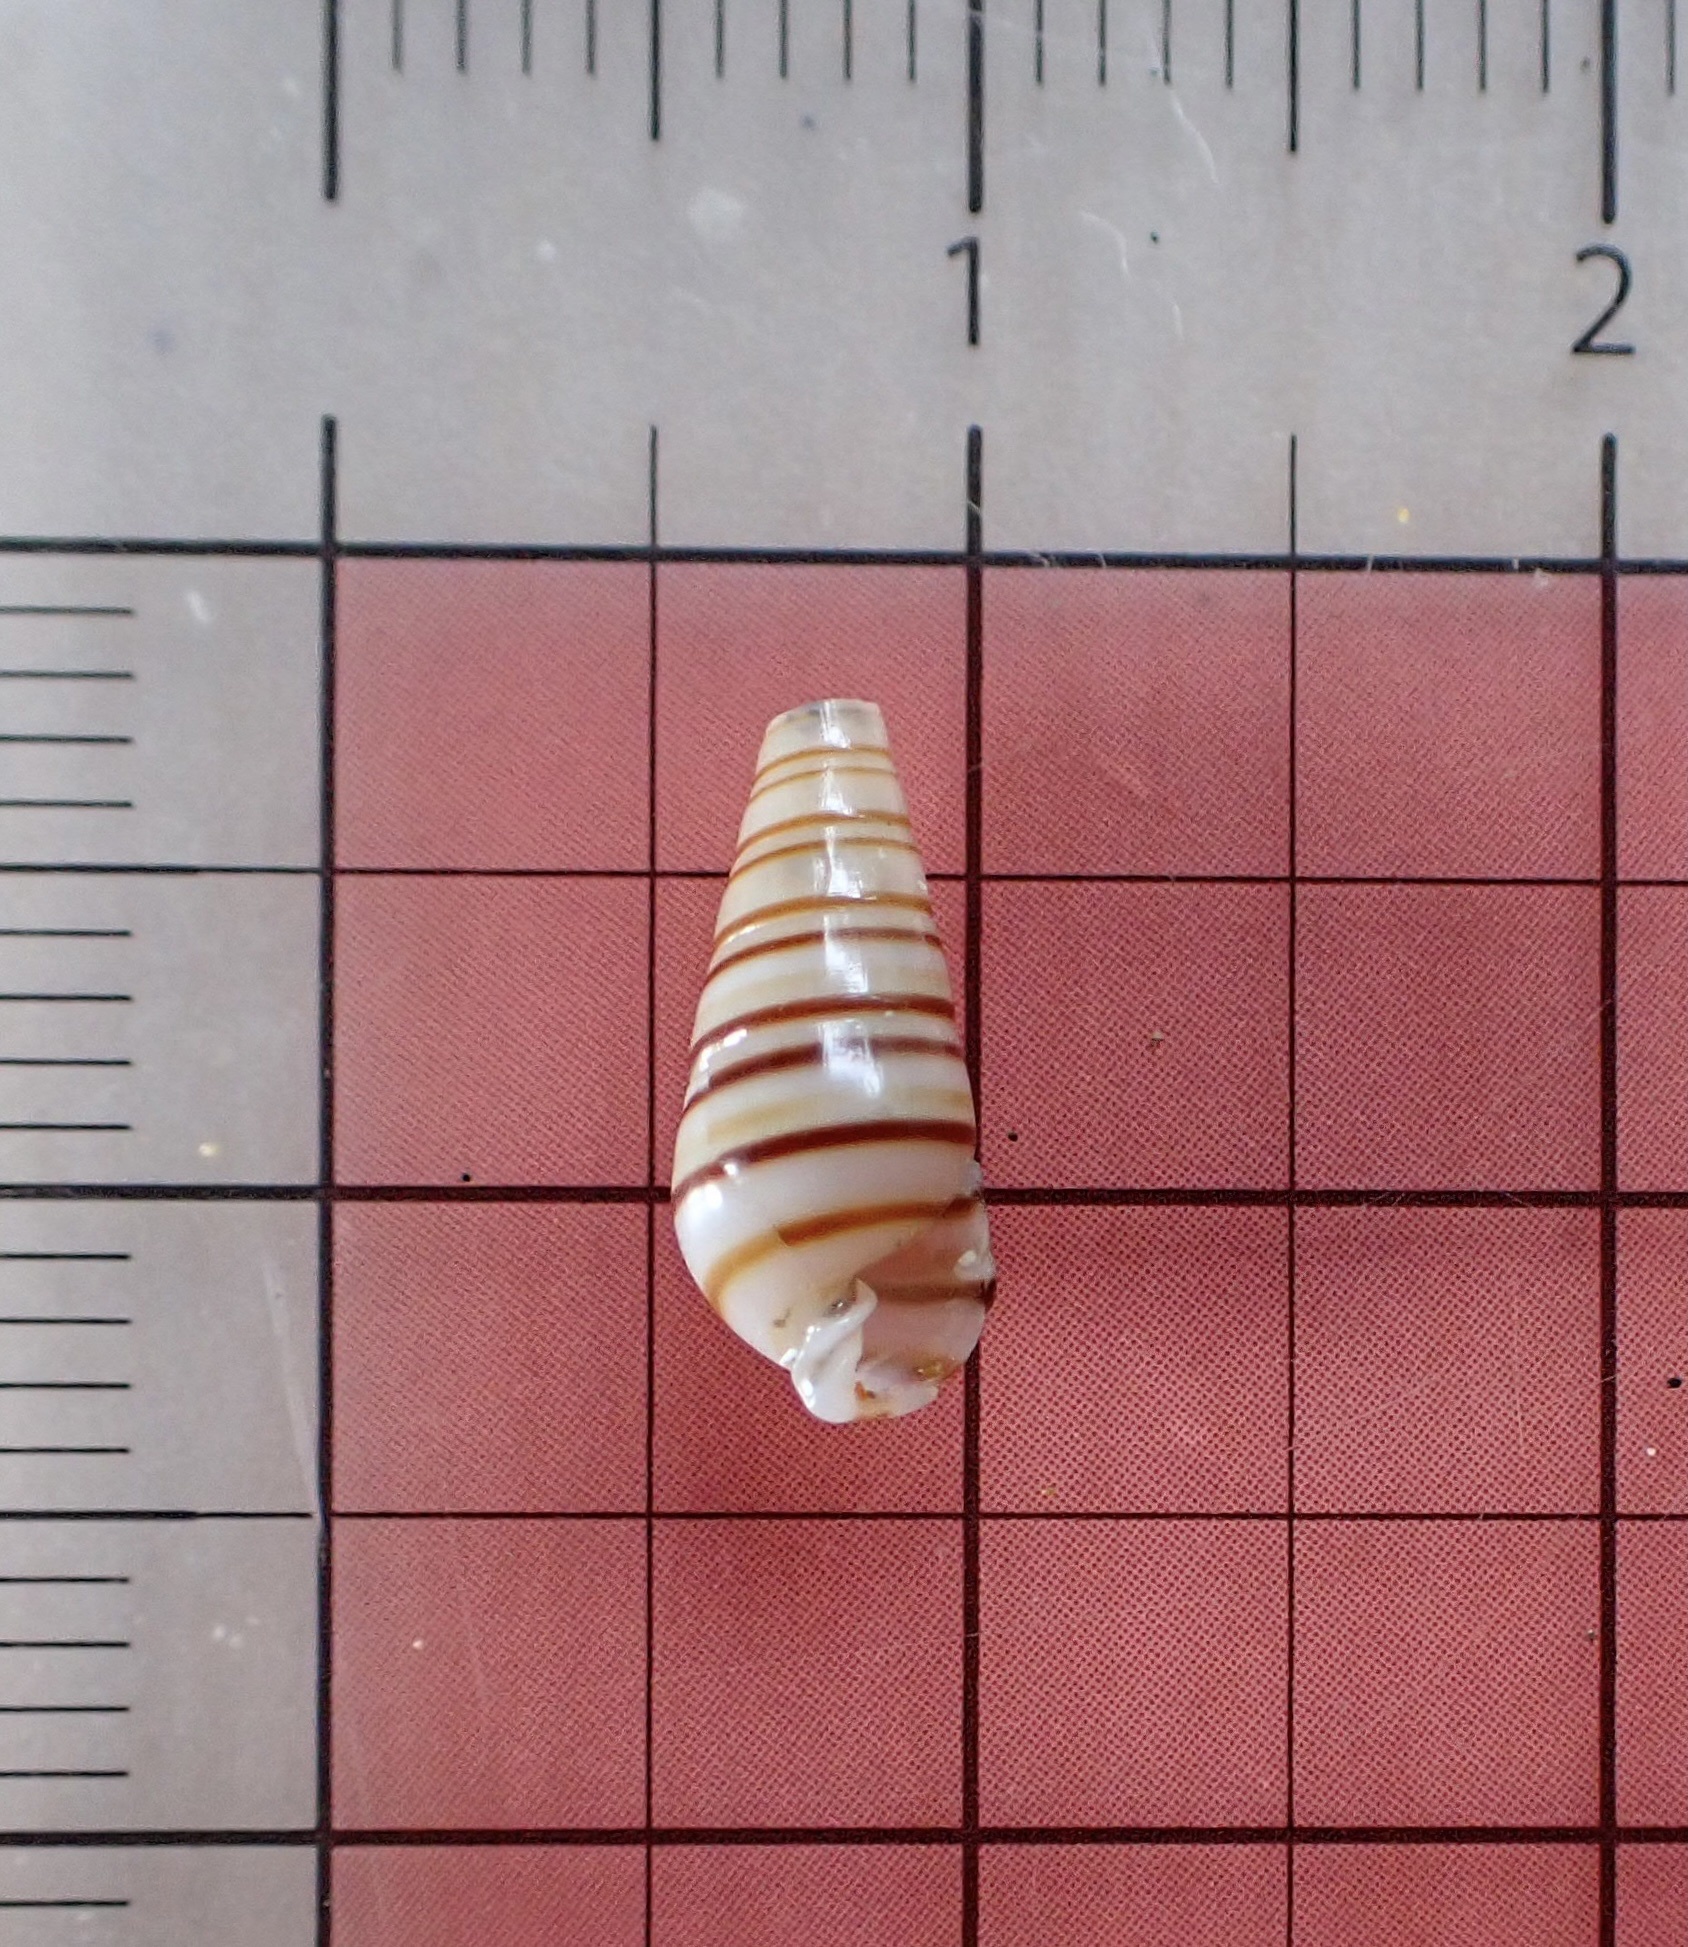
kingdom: Animalia
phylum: Mollusca
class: Gastropoda
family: Pyramidellidae
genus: Pyramidella
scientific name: Pyramidella dolabrata
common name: Giant atlantic pyram
